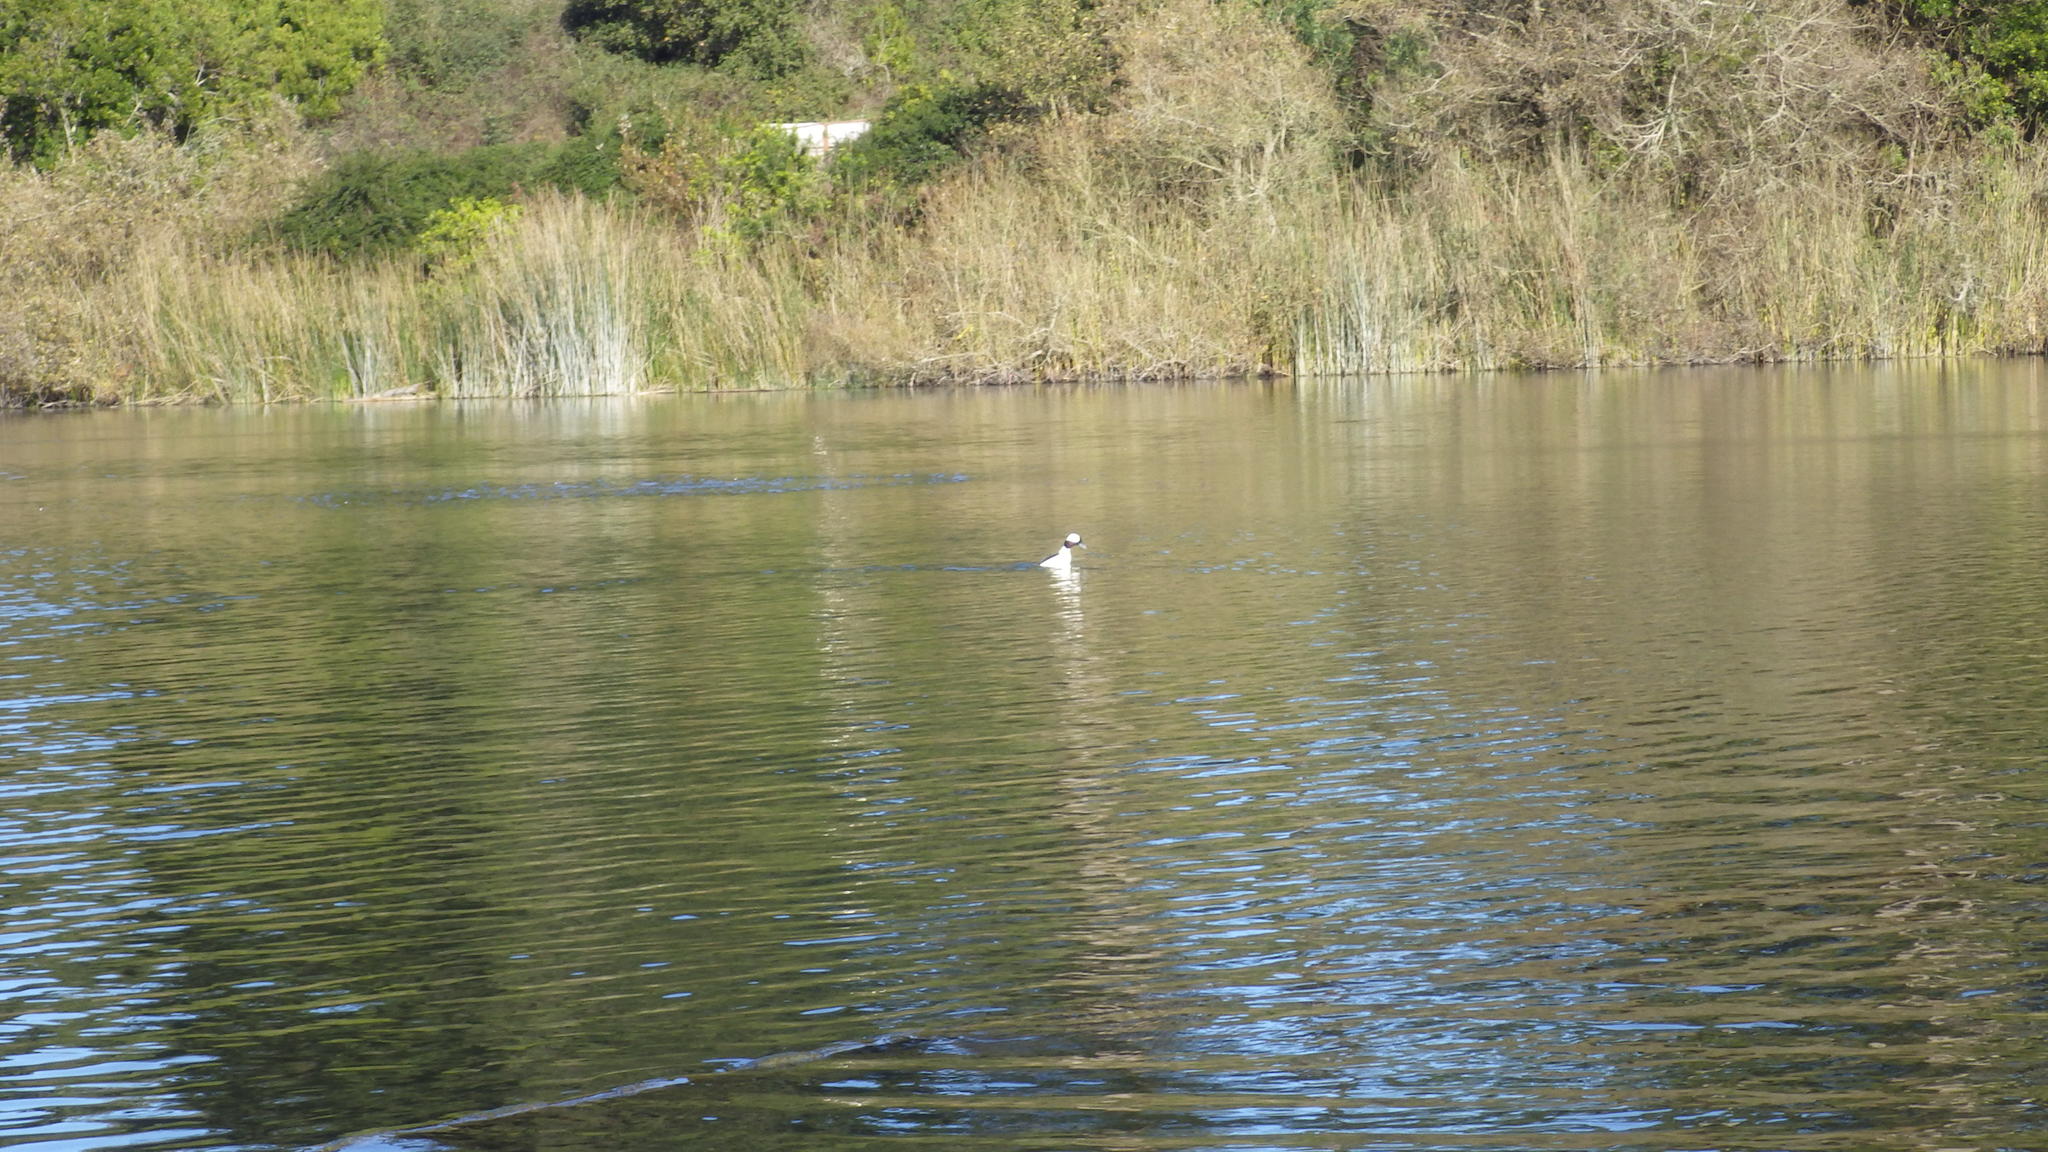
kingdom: Animalia
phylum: Chordata
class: Aves
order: Anseriformes
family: Anatidae
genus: Bucephala
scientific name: Bucephala albeola
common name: Bufflehead
